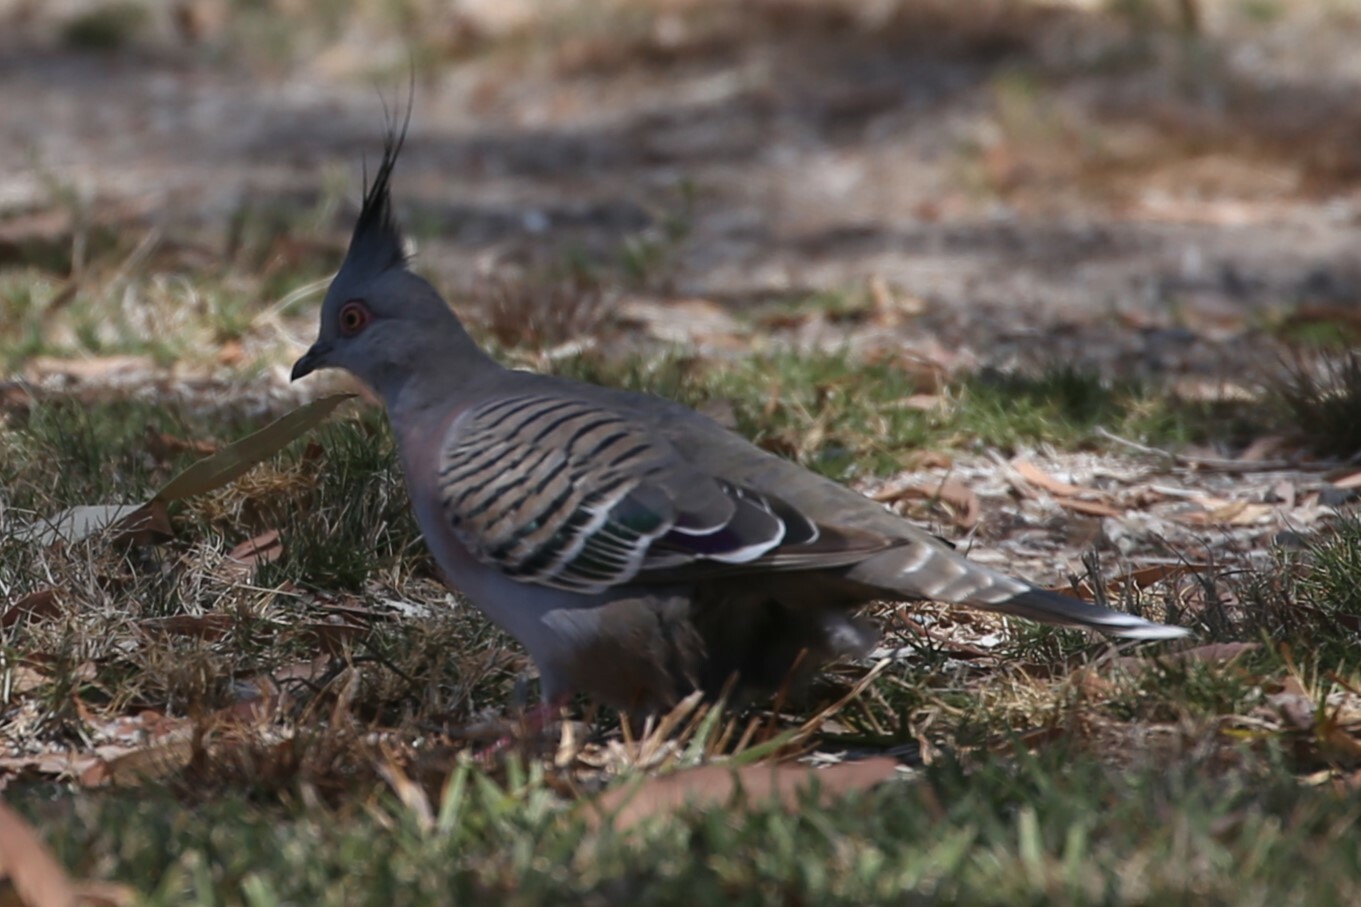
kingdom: Animalia
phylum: Chordata
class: Aves
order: Columbiformes
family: Columbidae
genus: Ocyphaps
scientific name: Ocyphaps lophotes
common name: Crested pigeon
